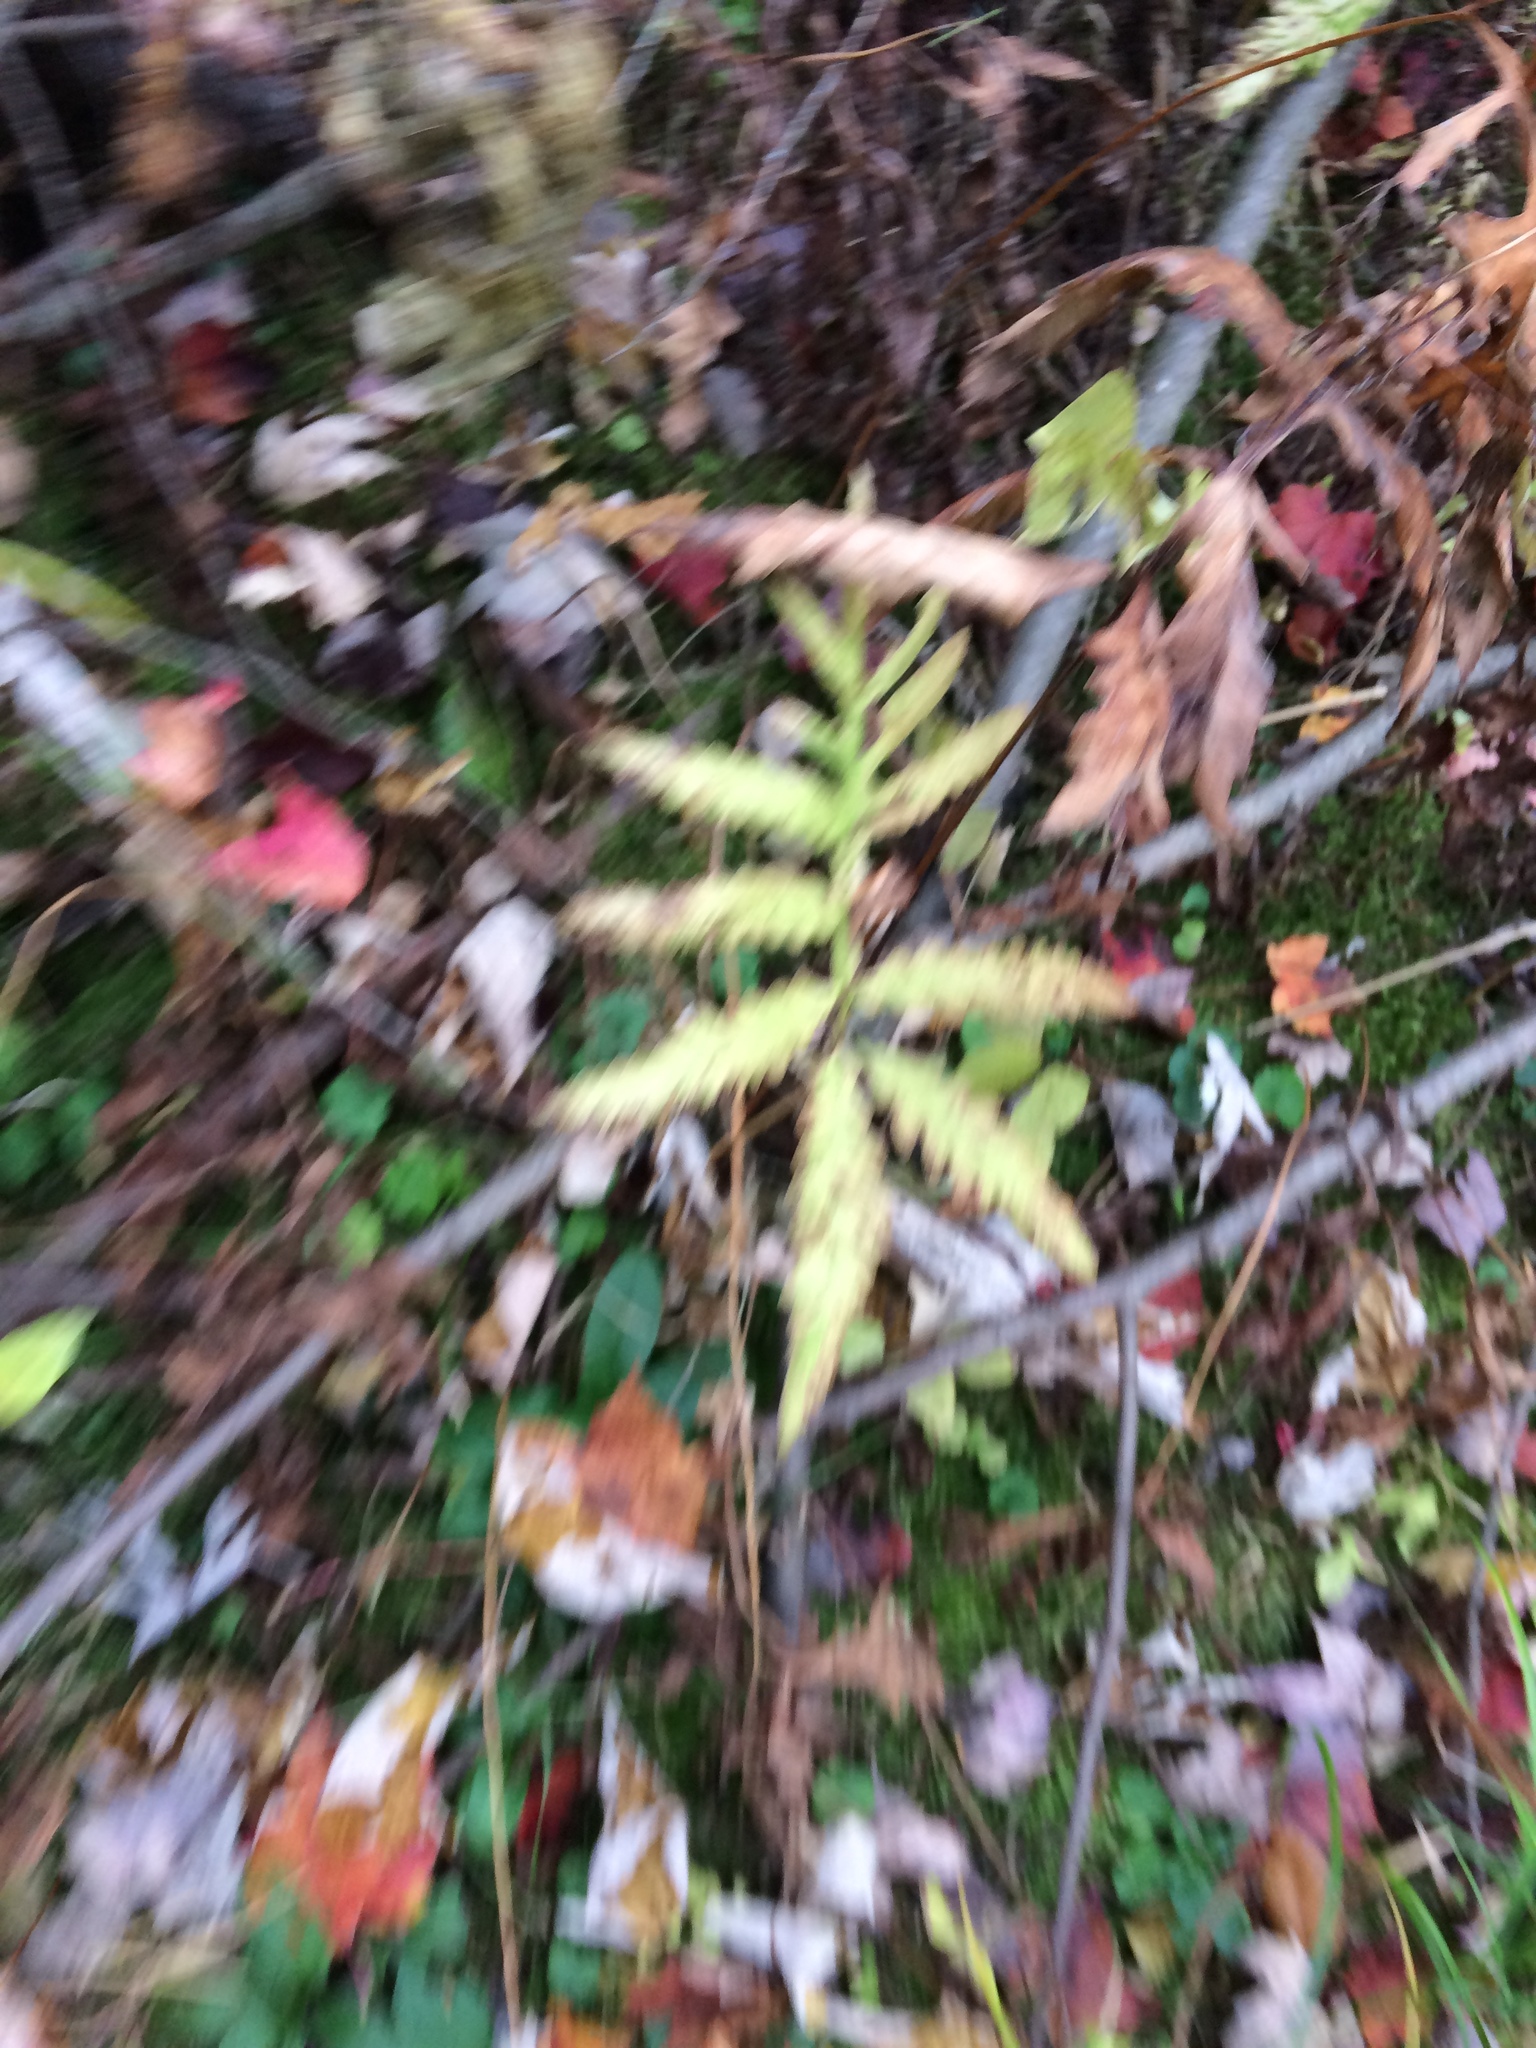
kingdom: Plantae
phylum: Tracheophyta
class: Polypodiopsida
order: Polypodiales
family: Onocleaceae
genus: Onoclea
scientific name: Onoclea sensibilis
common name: Sensitive fern
